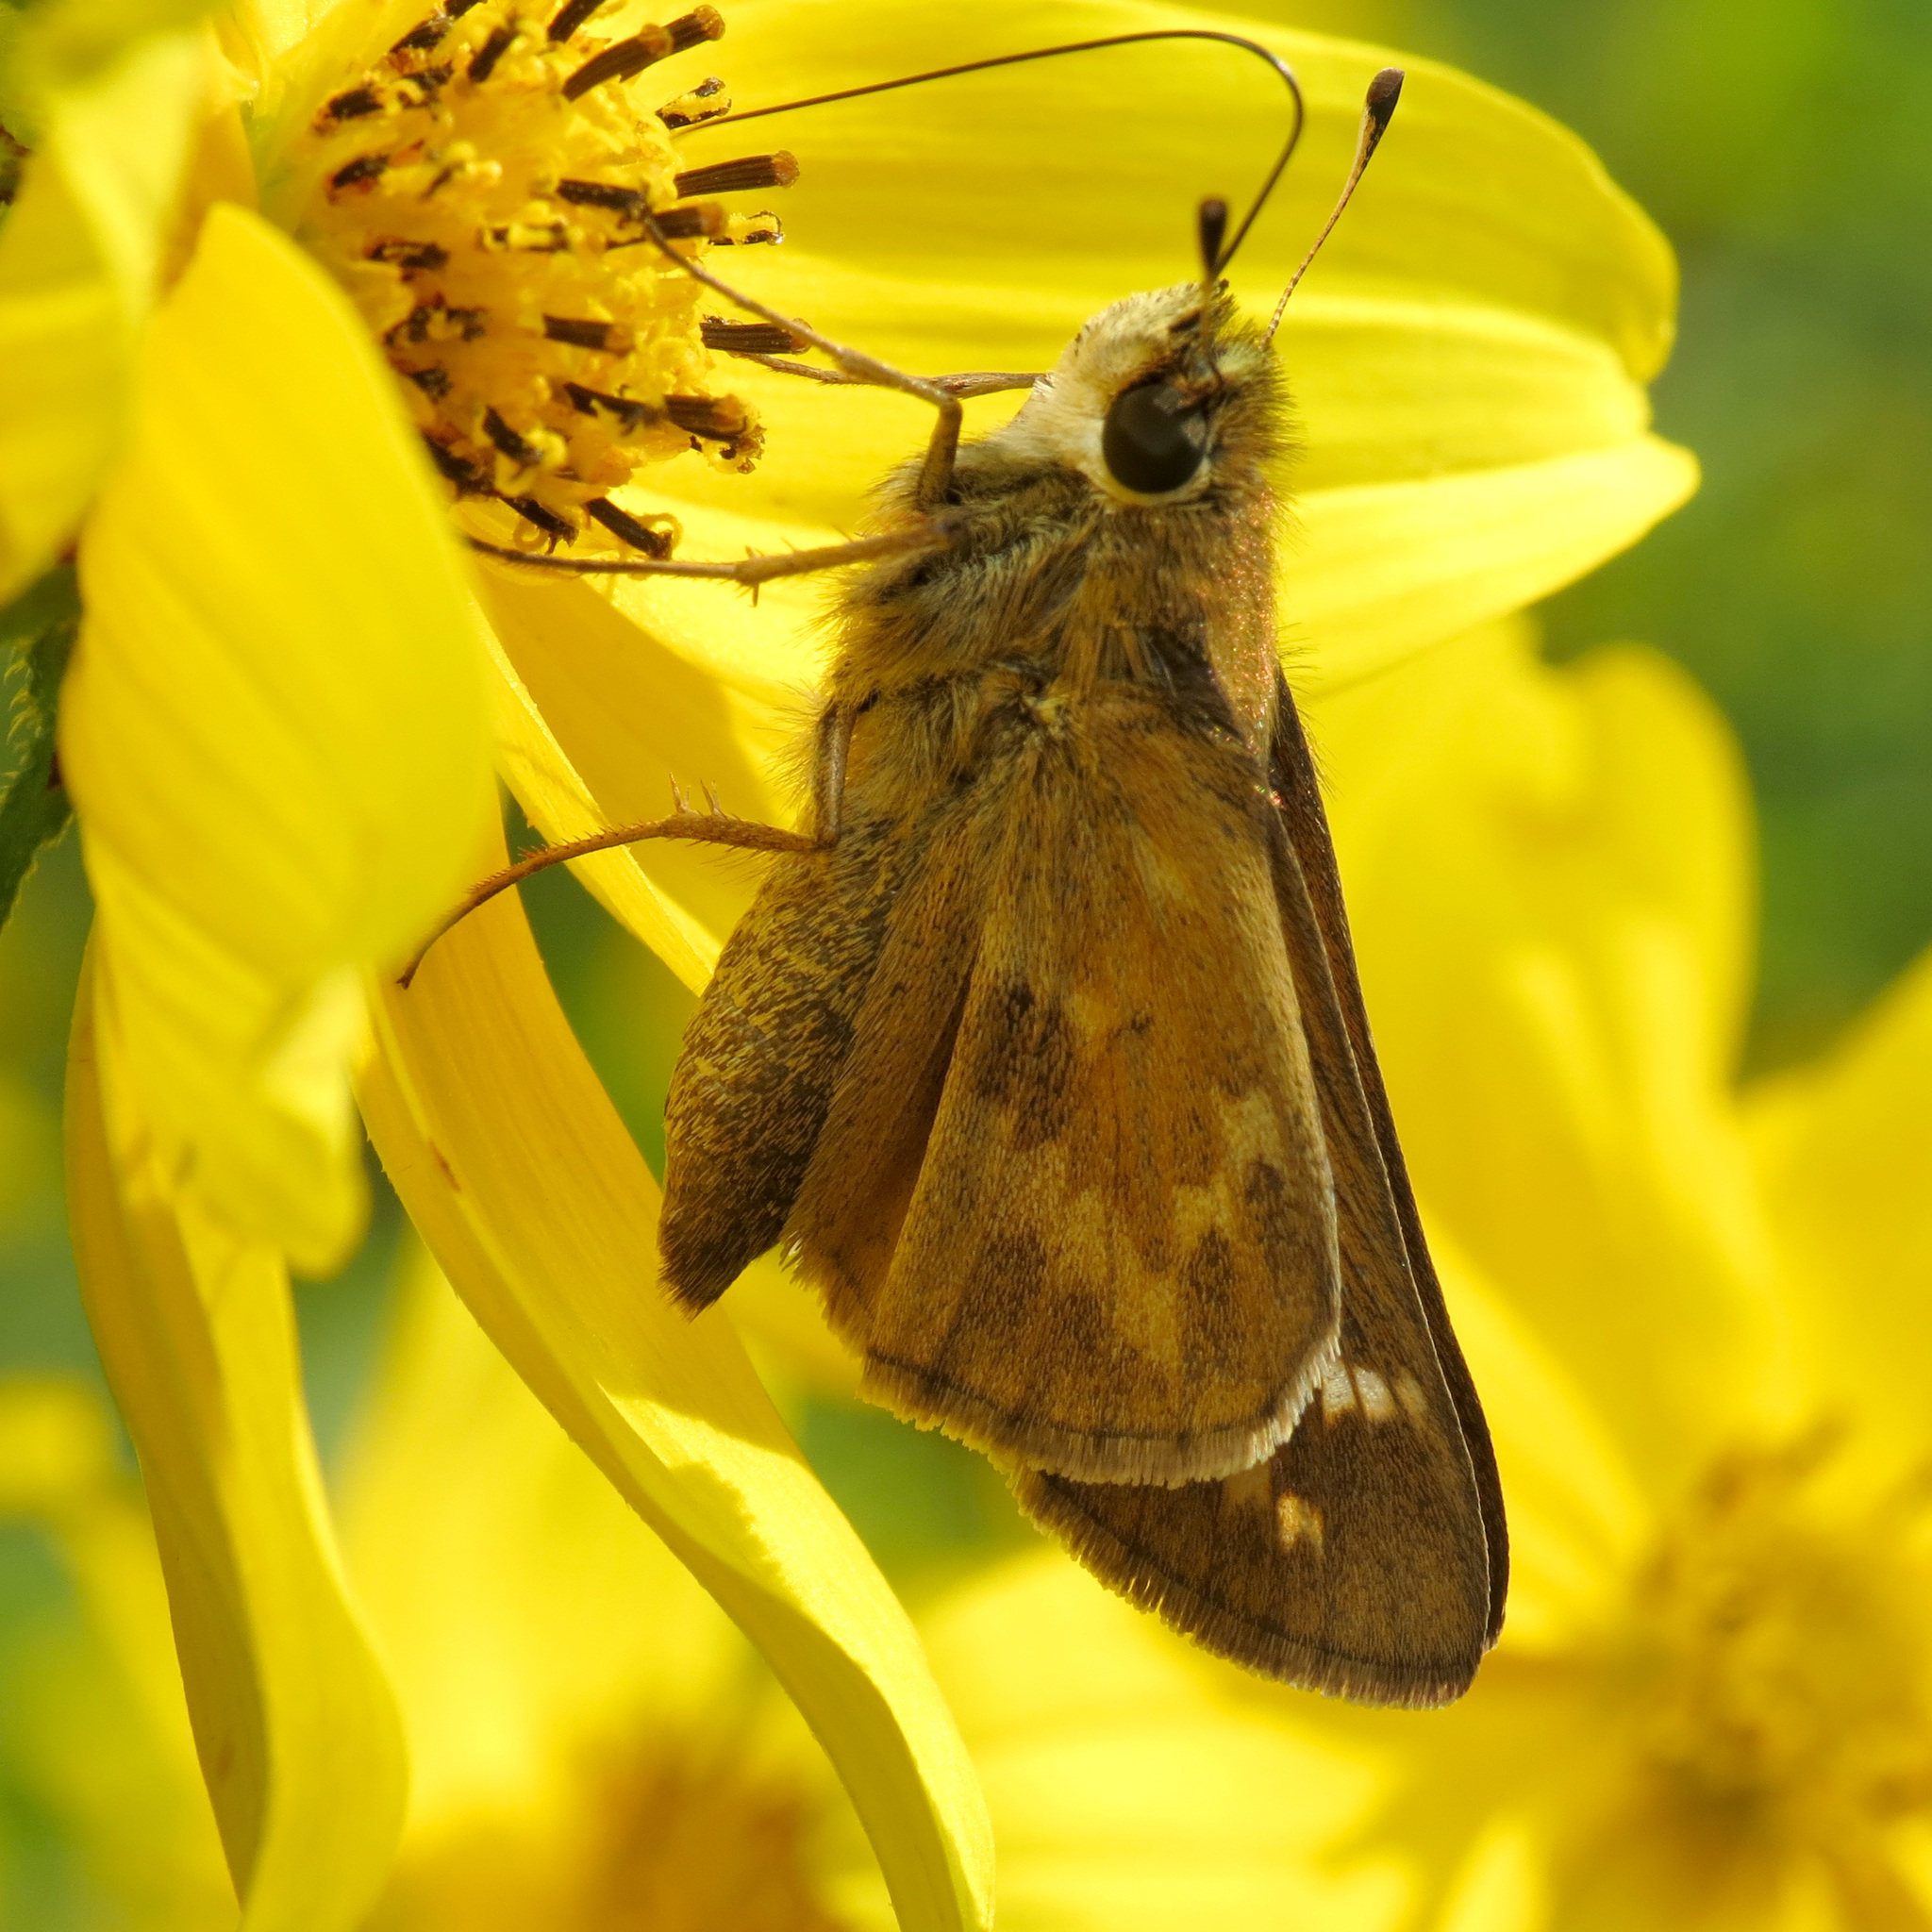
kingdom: Animalia
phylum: Arthropoda
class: Insecta
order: Lepidoptera
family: Hesperiidae
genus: Atalopedes
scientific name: Atalopedes
